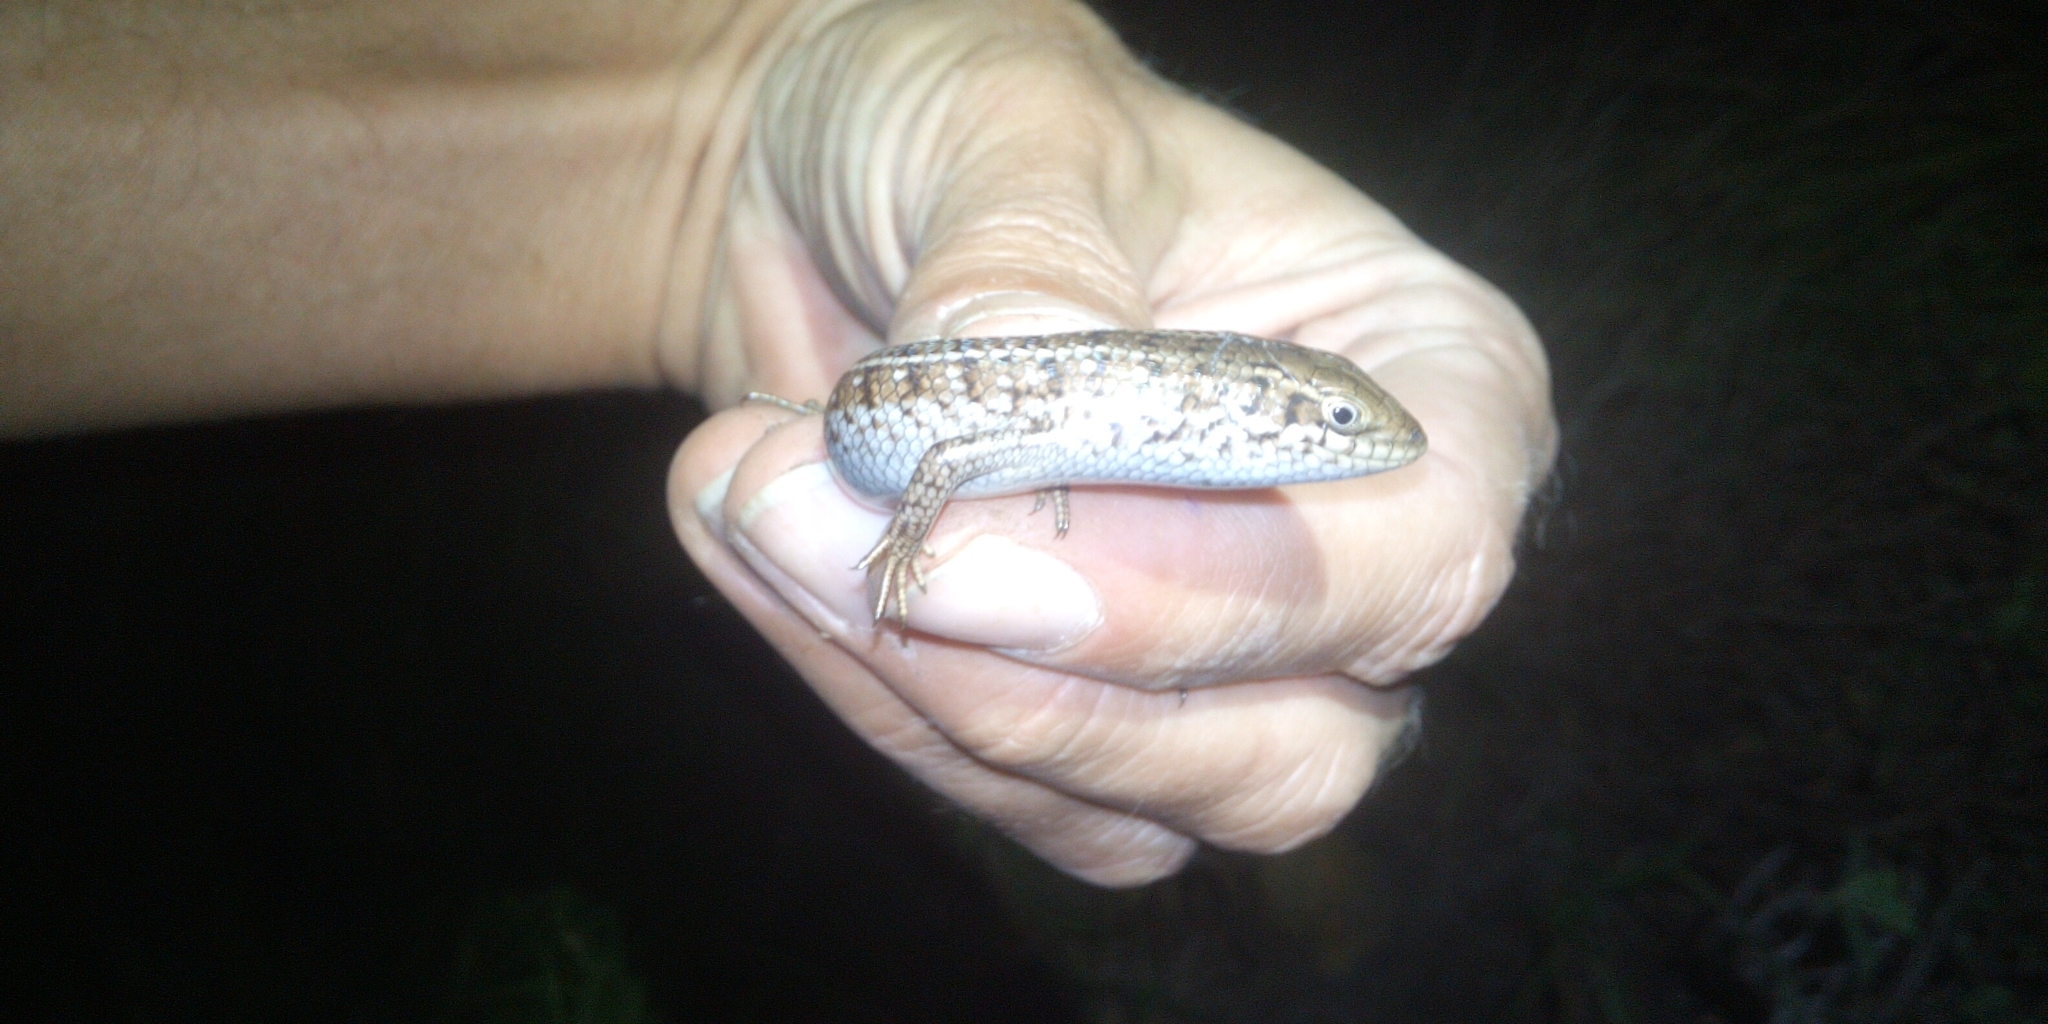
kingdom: Animalia
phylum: Chordata
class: Squamata
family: Scincidae
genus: Trachylepis
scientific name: Trachylepis capensis
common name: Cape skink
